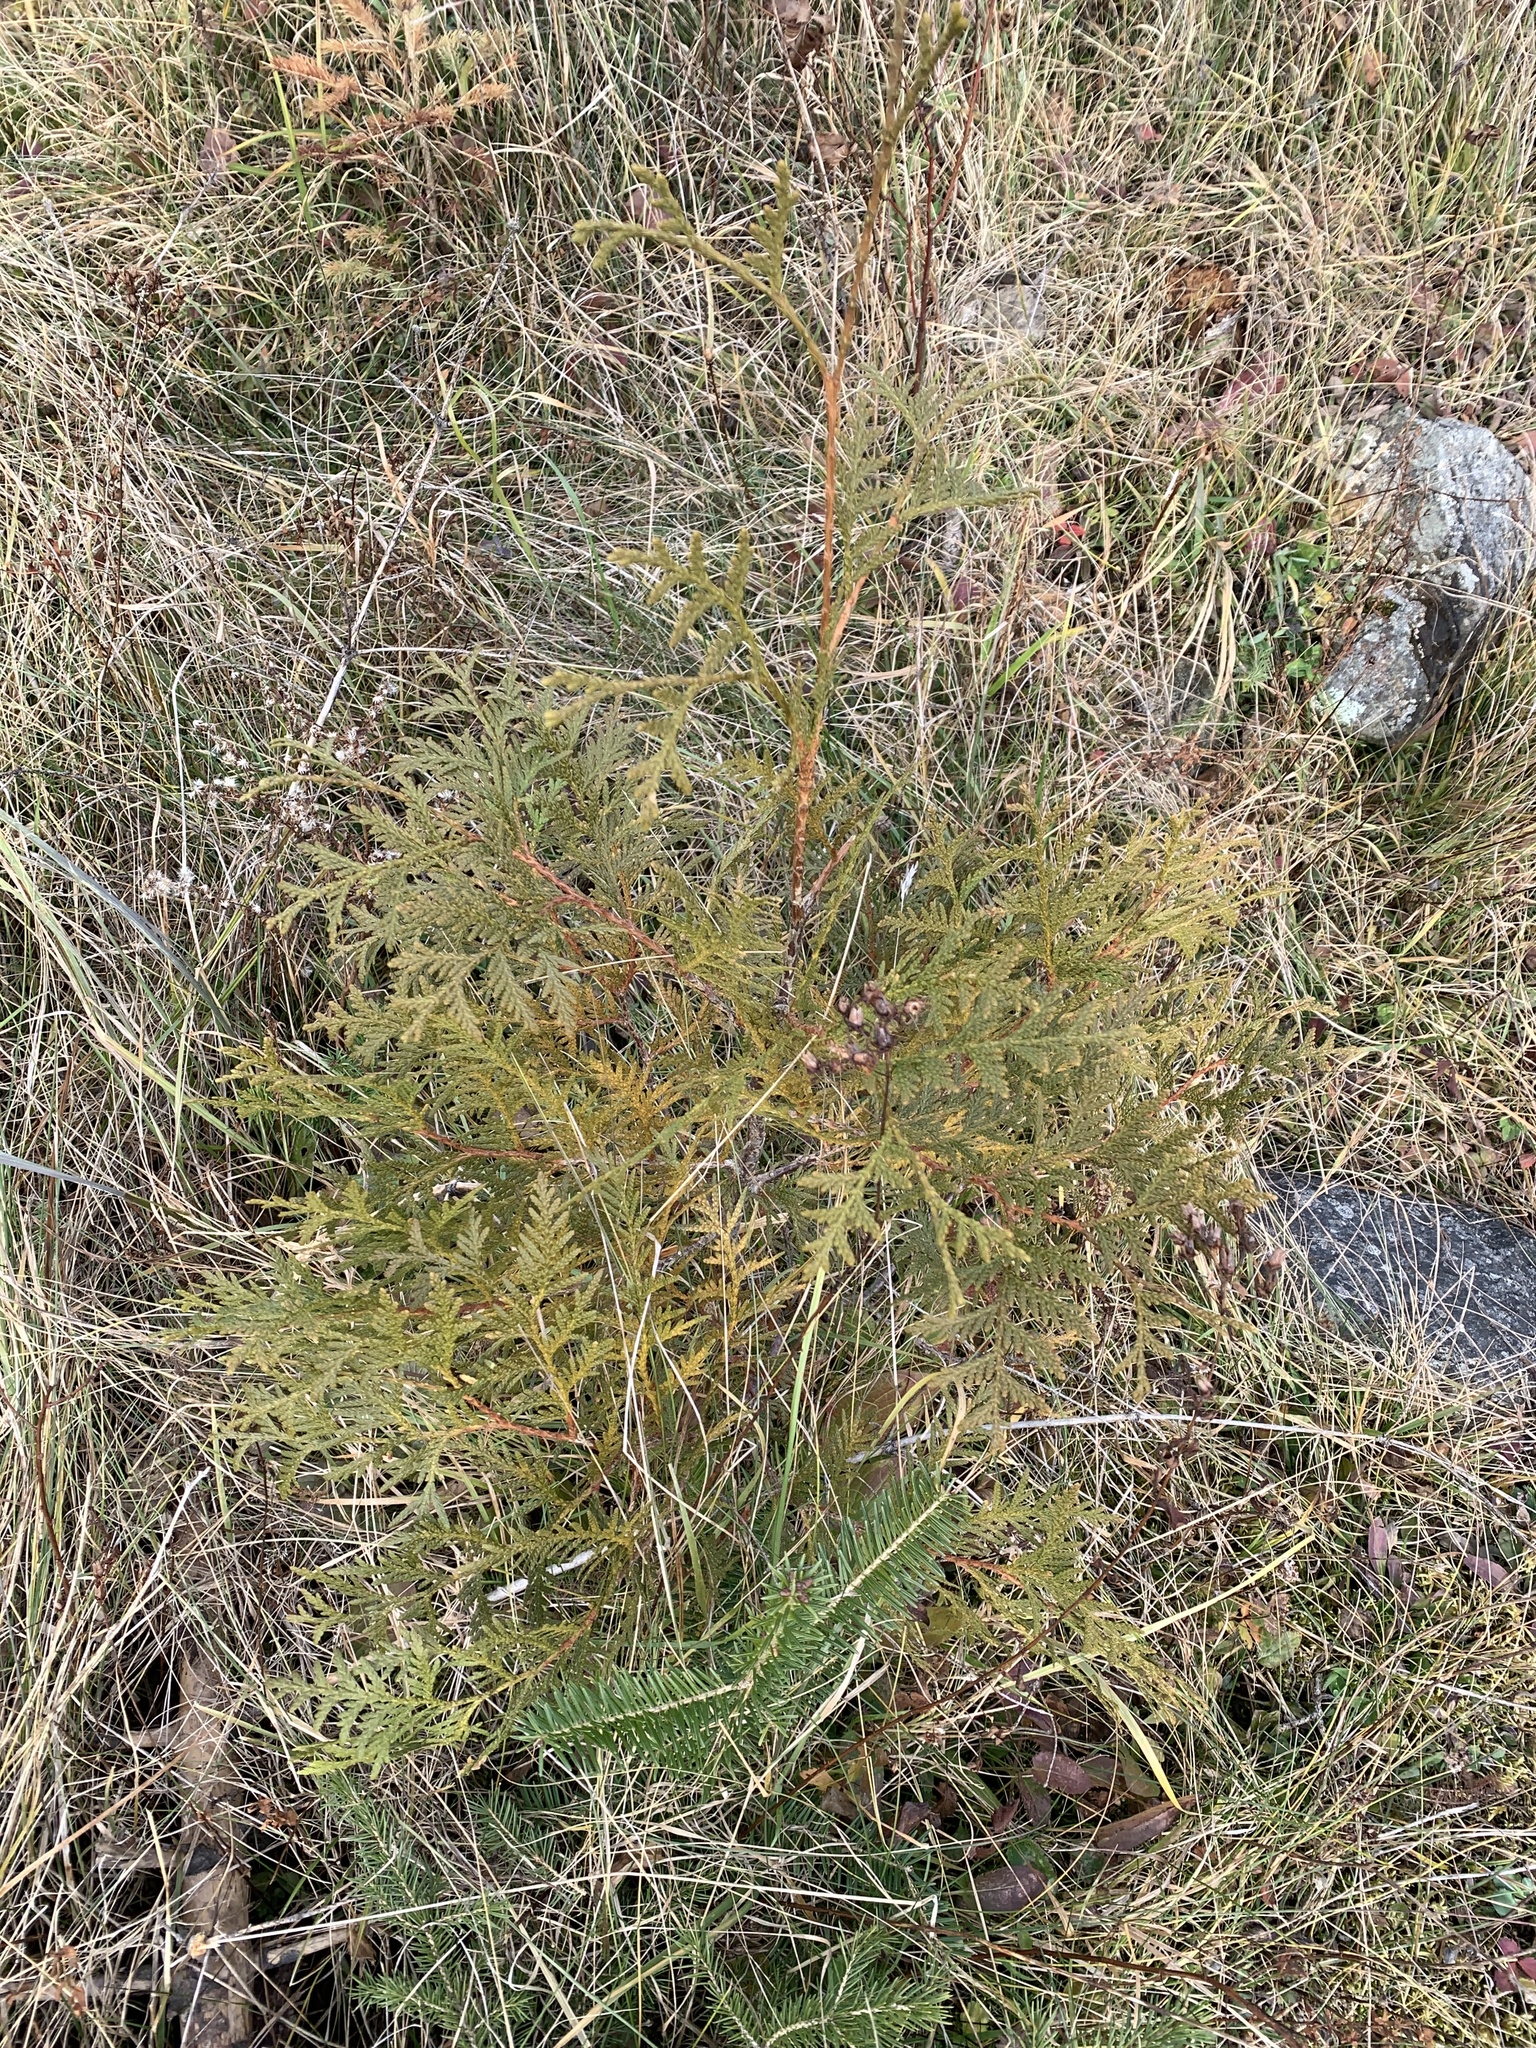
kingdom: Plantae
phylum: Tracheophyta
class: Pinopsida
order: Pinales
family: Cupressaceae
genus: Thuja
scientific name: Thuja occidentalis
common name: Northern white-cedar
